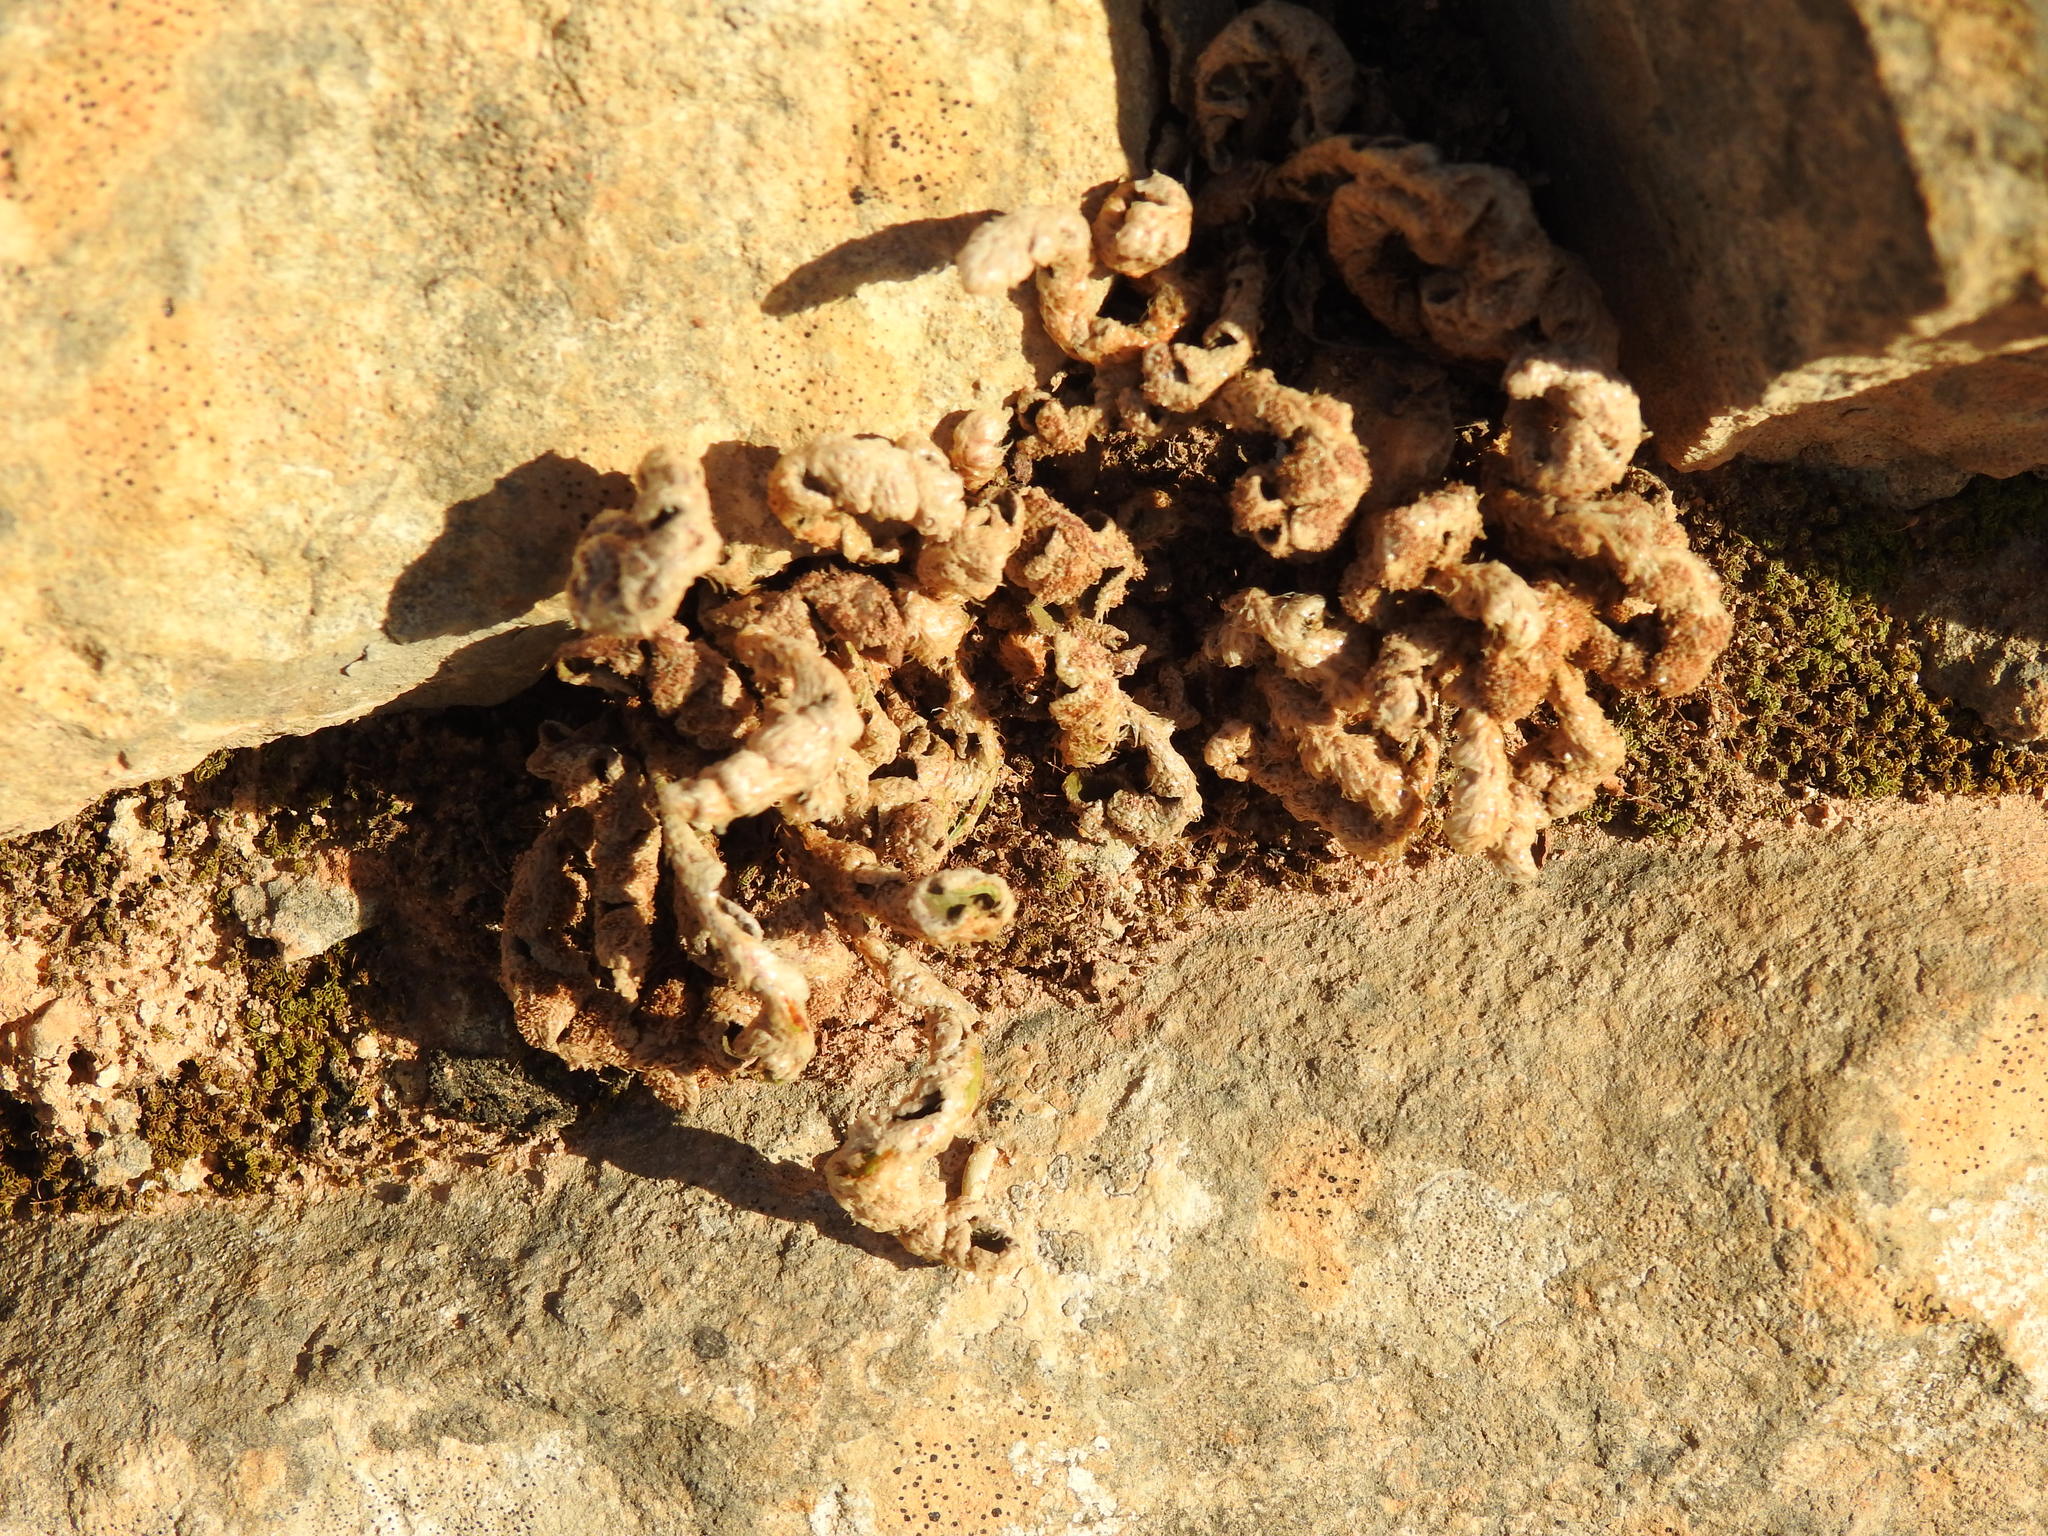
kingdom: Plantae
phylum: Tracheophyta
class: Polypodiopsida
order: Polypodiales
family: Aspleniaceae
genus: Asplenium
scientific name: Asplenium ceterach
